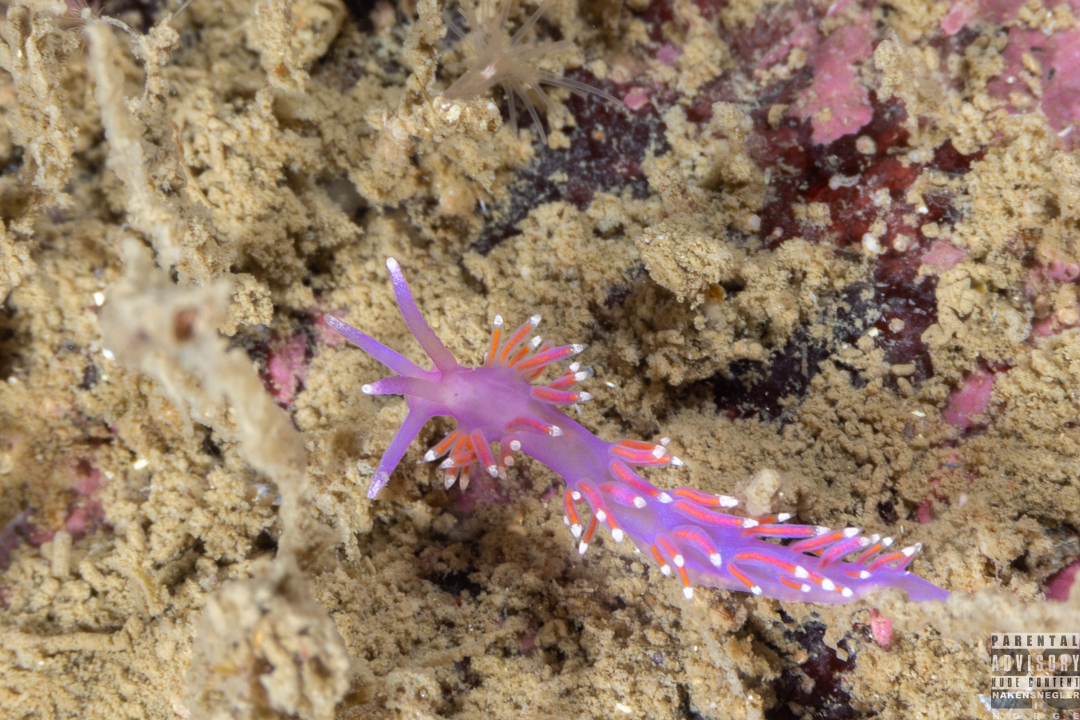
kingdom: Animalia
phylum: Mollusca
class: Gastropoda
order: Nudibranchia
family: Flabellinidae
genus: Edmundsella
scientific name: Edmundsella pedata
